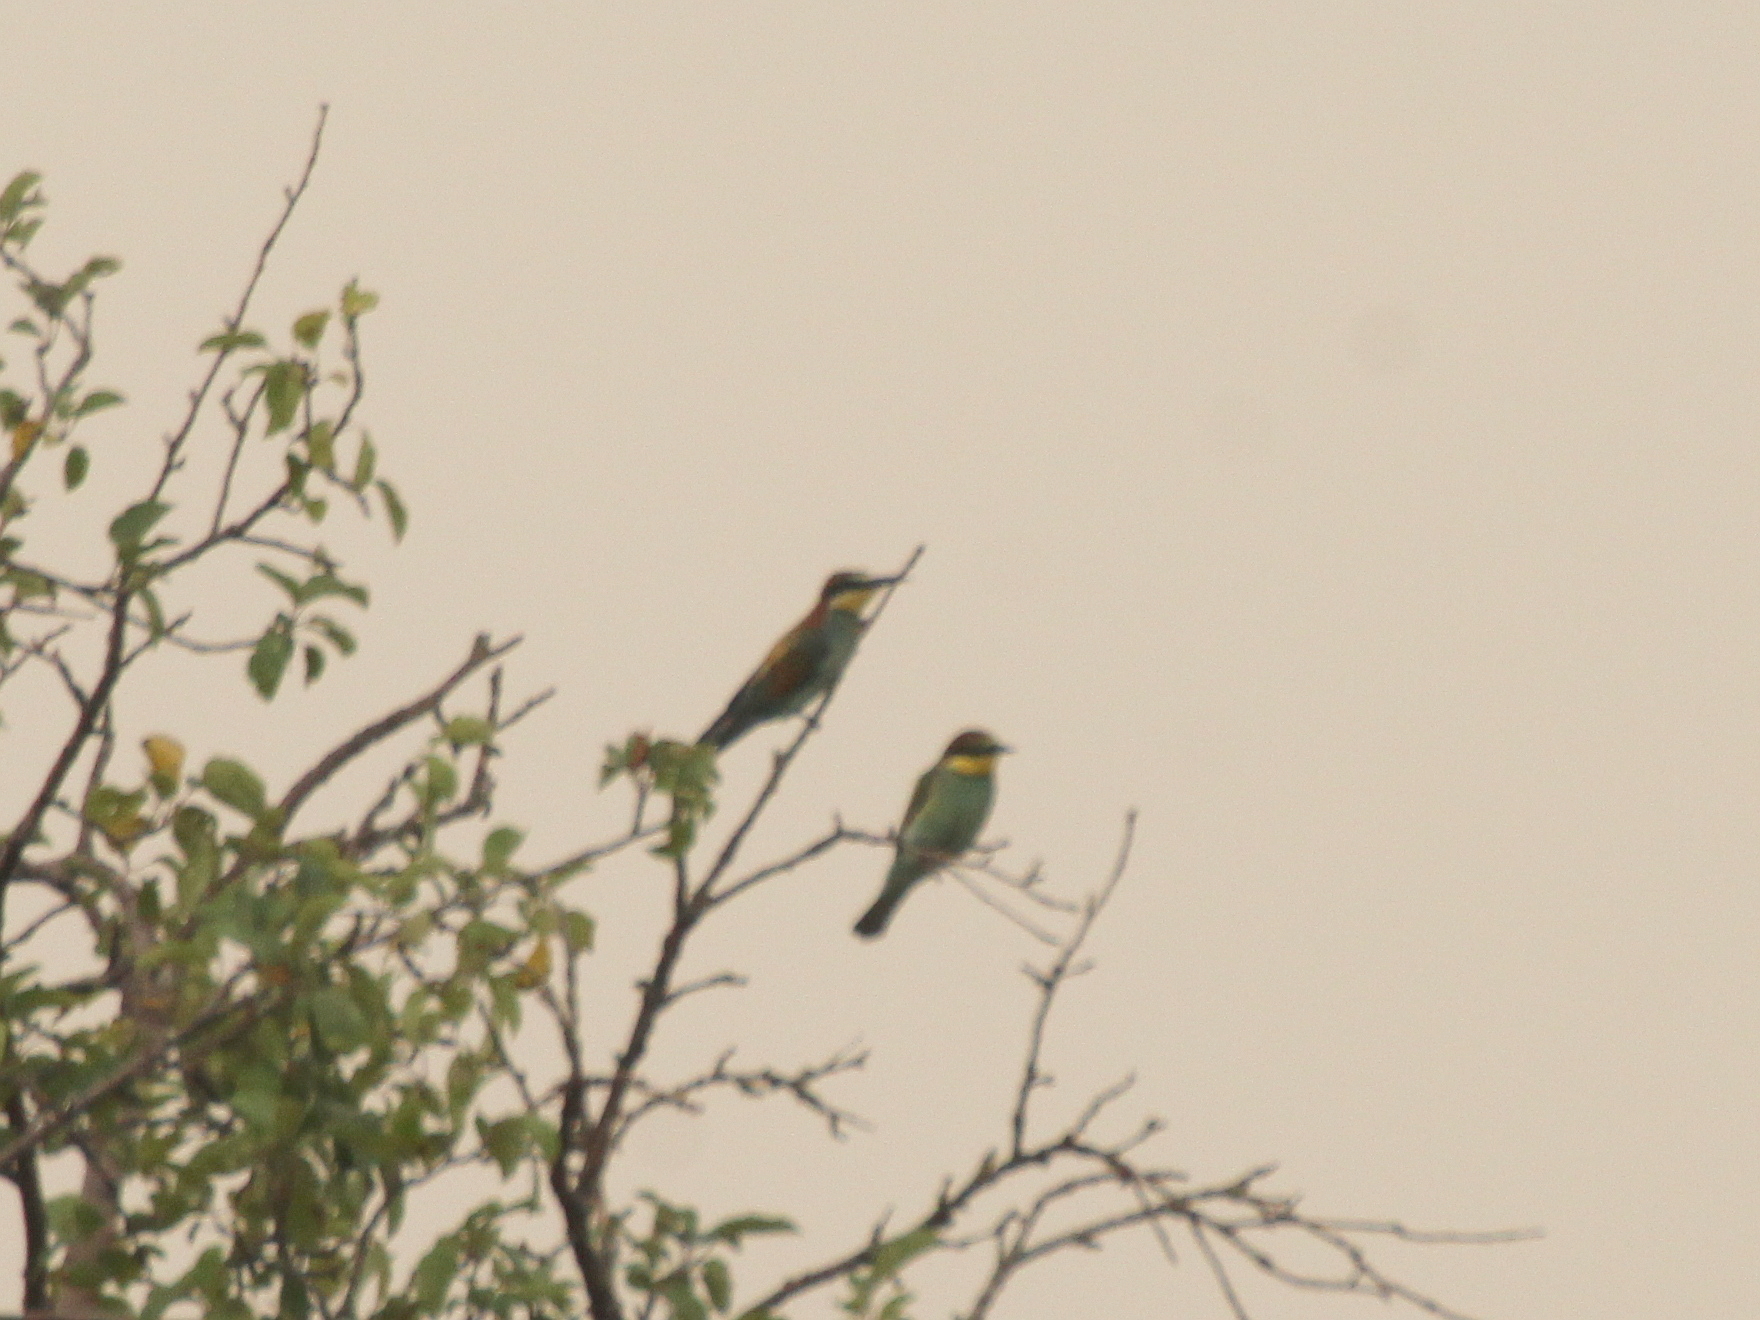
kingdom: Animalia
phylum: Chordata
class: Aves
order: Coraciiformes
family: Meropidae
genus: Merops
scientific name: Merops apiaster
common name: European bee-eater
